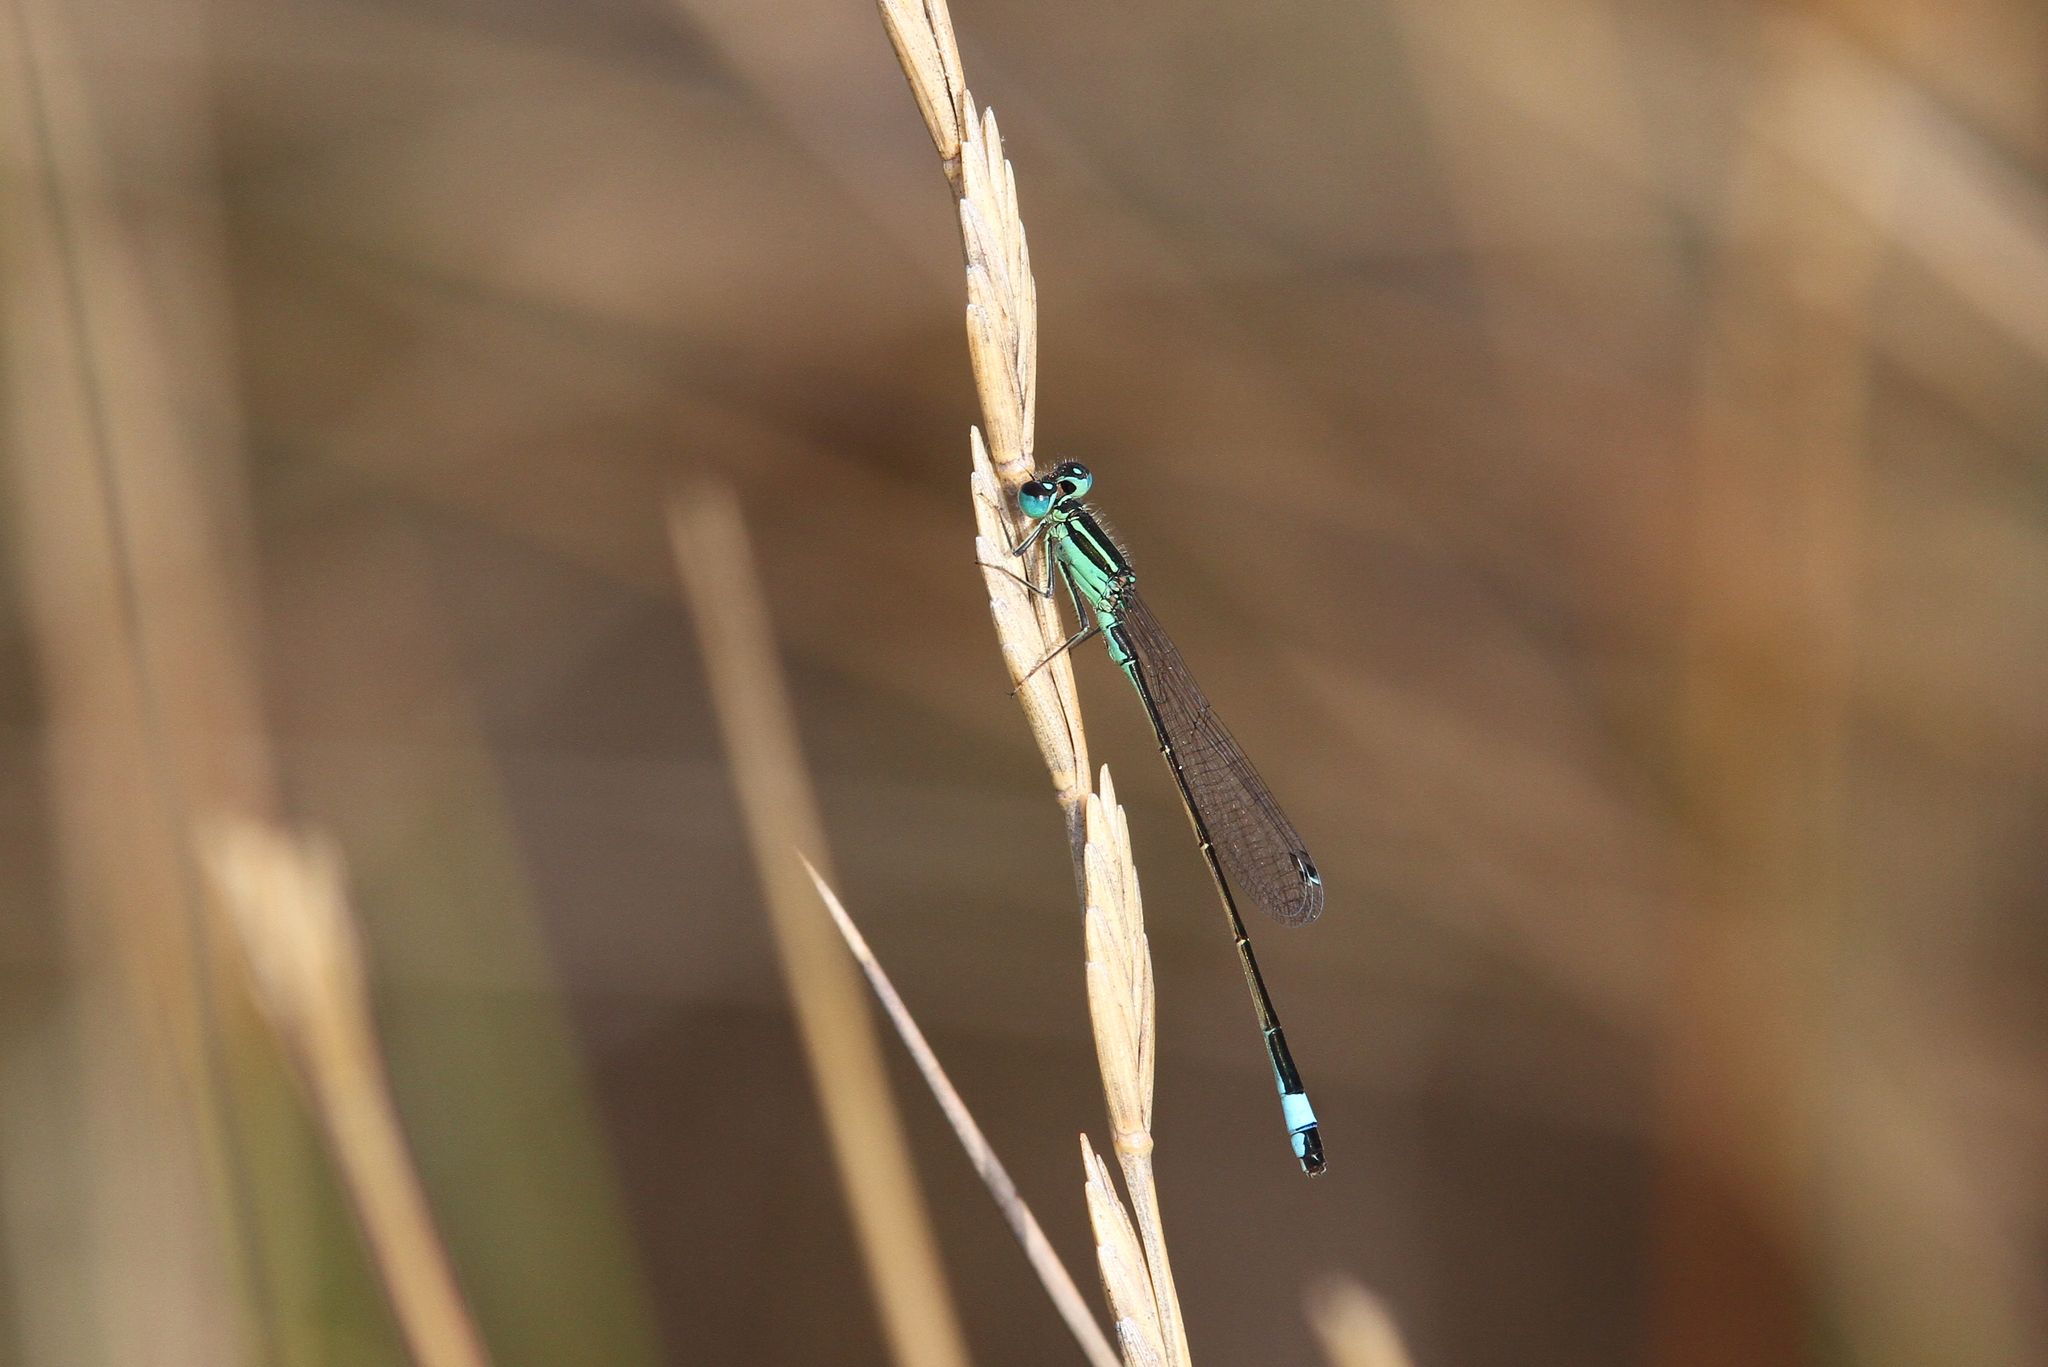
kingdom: Animalia
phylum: Arthropoda
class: Insecta
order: Odonata
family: Coenagrionidae
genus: Ischnura
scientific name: Ischnura genei
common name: Island bluetail
